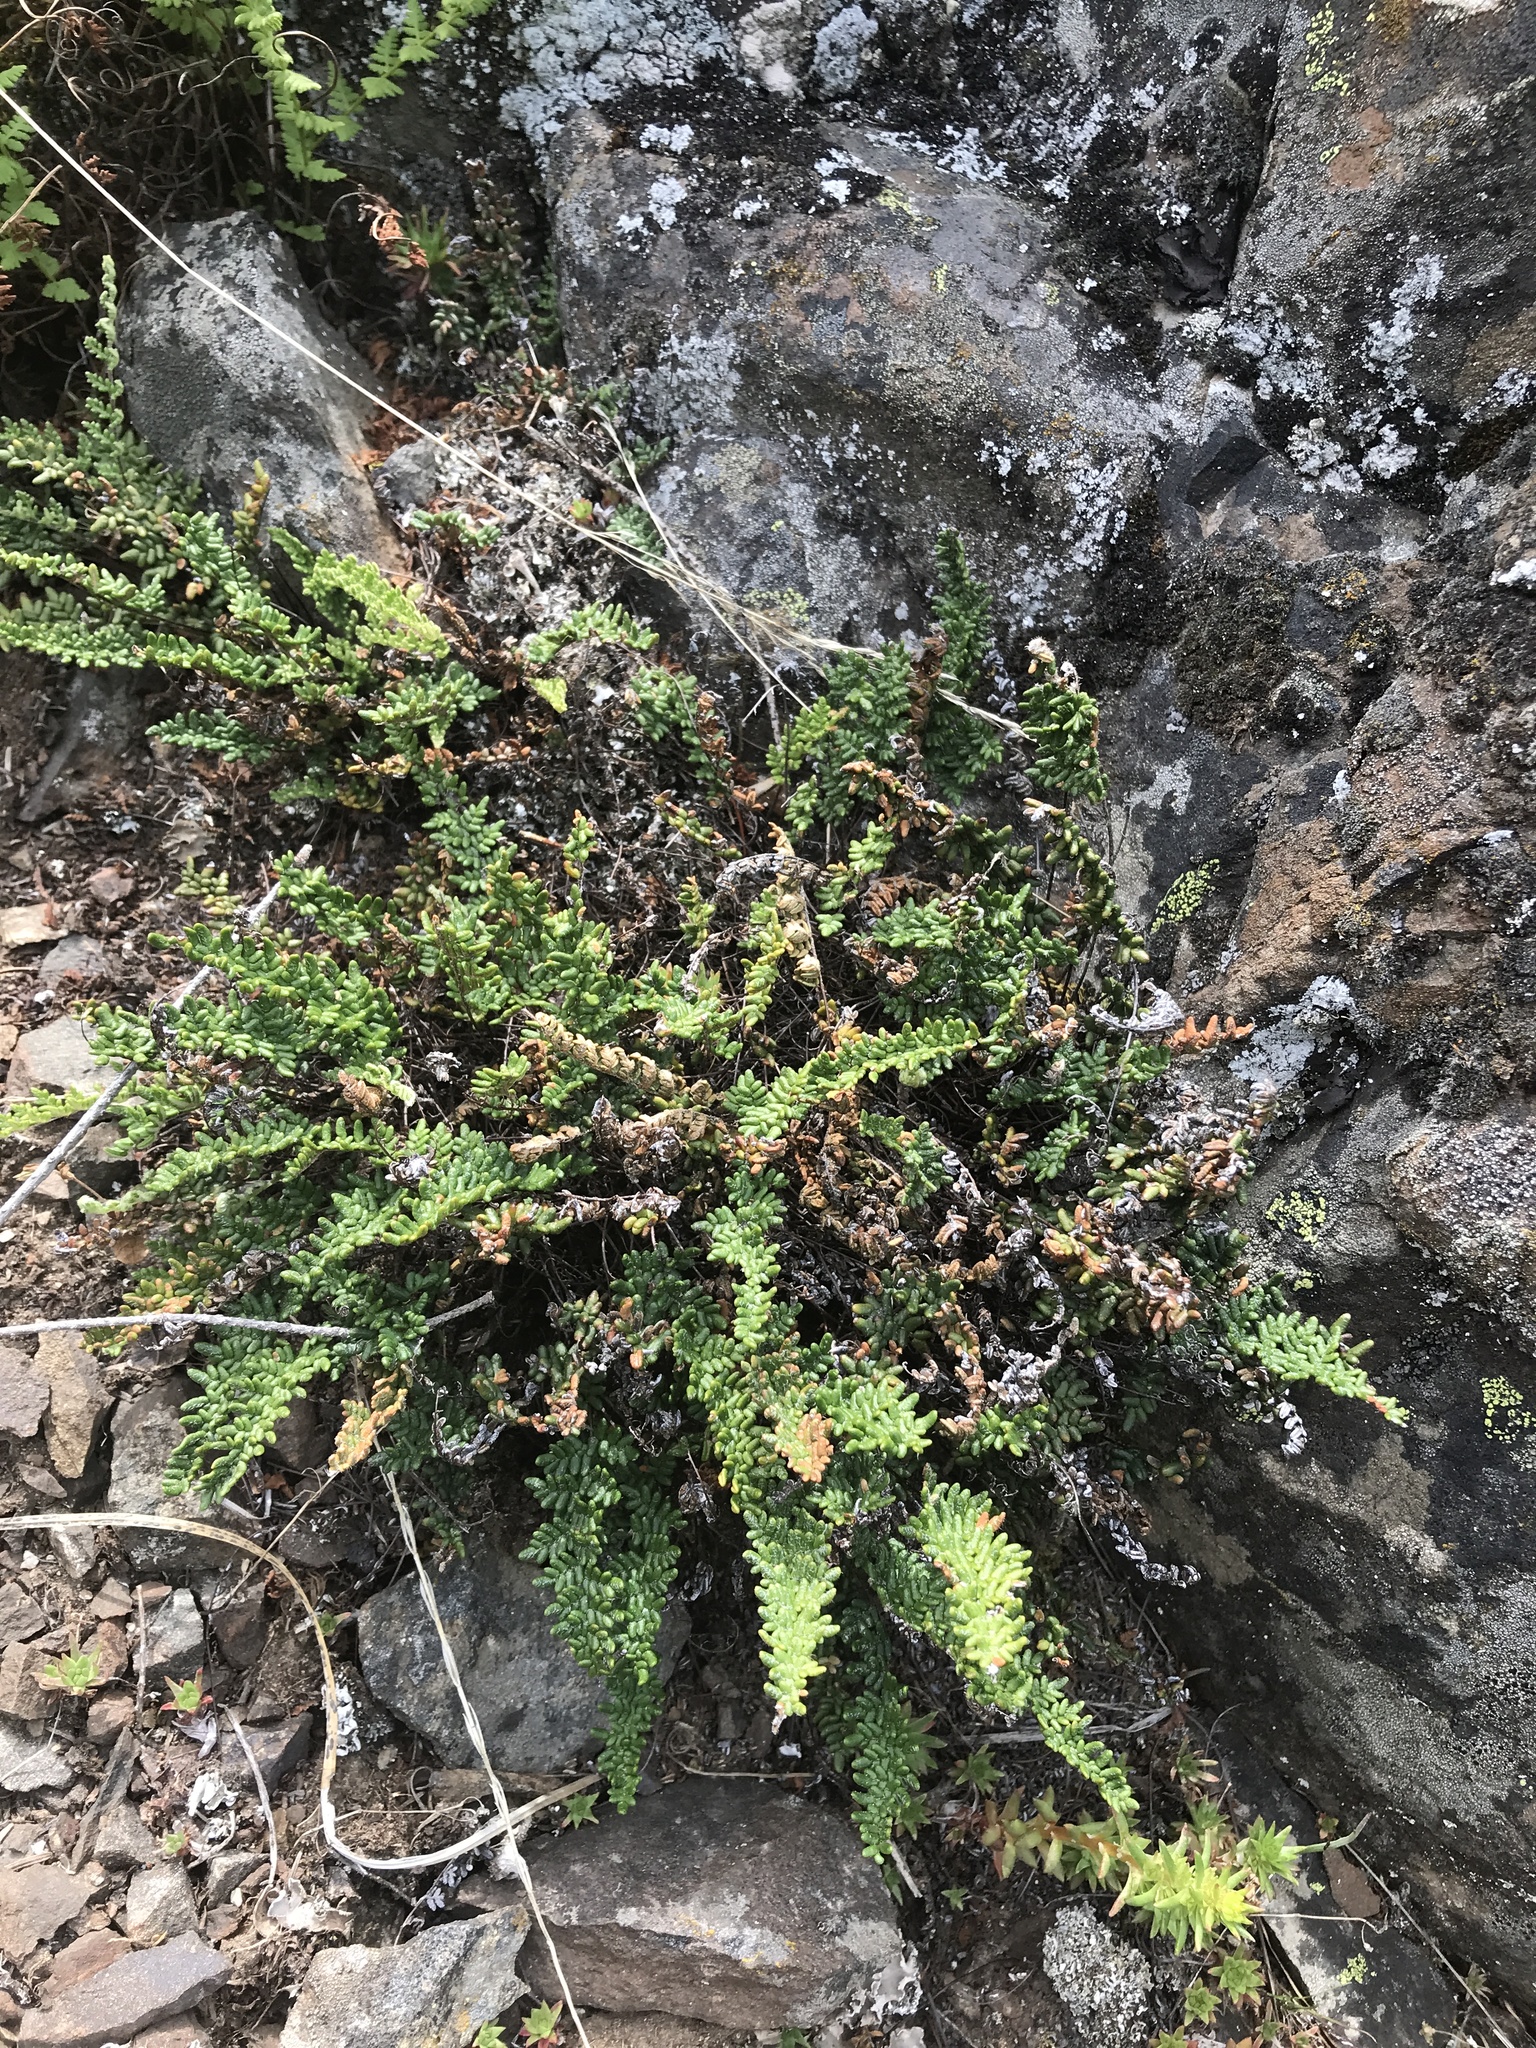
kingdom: Plantae
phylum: Tracheophyta
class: Polypodiopsida
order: Polypodiales
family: Pteridaceae
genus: Myriopteris
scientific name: Myriopteris gracillima
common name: Lace fern
